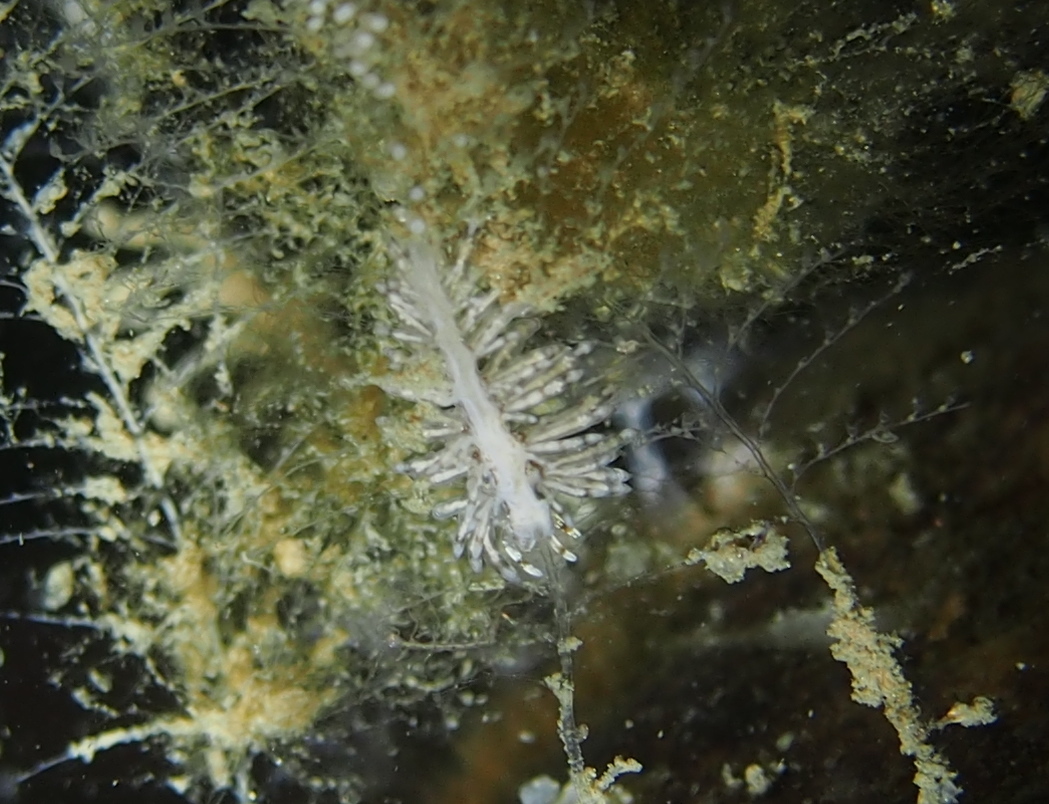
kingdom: Animalia
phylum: Mollusca
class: Gastropoda
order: Nudibranchia
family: Eubranchidae
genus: Eubranchus
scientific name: Eubranchus vittatus
